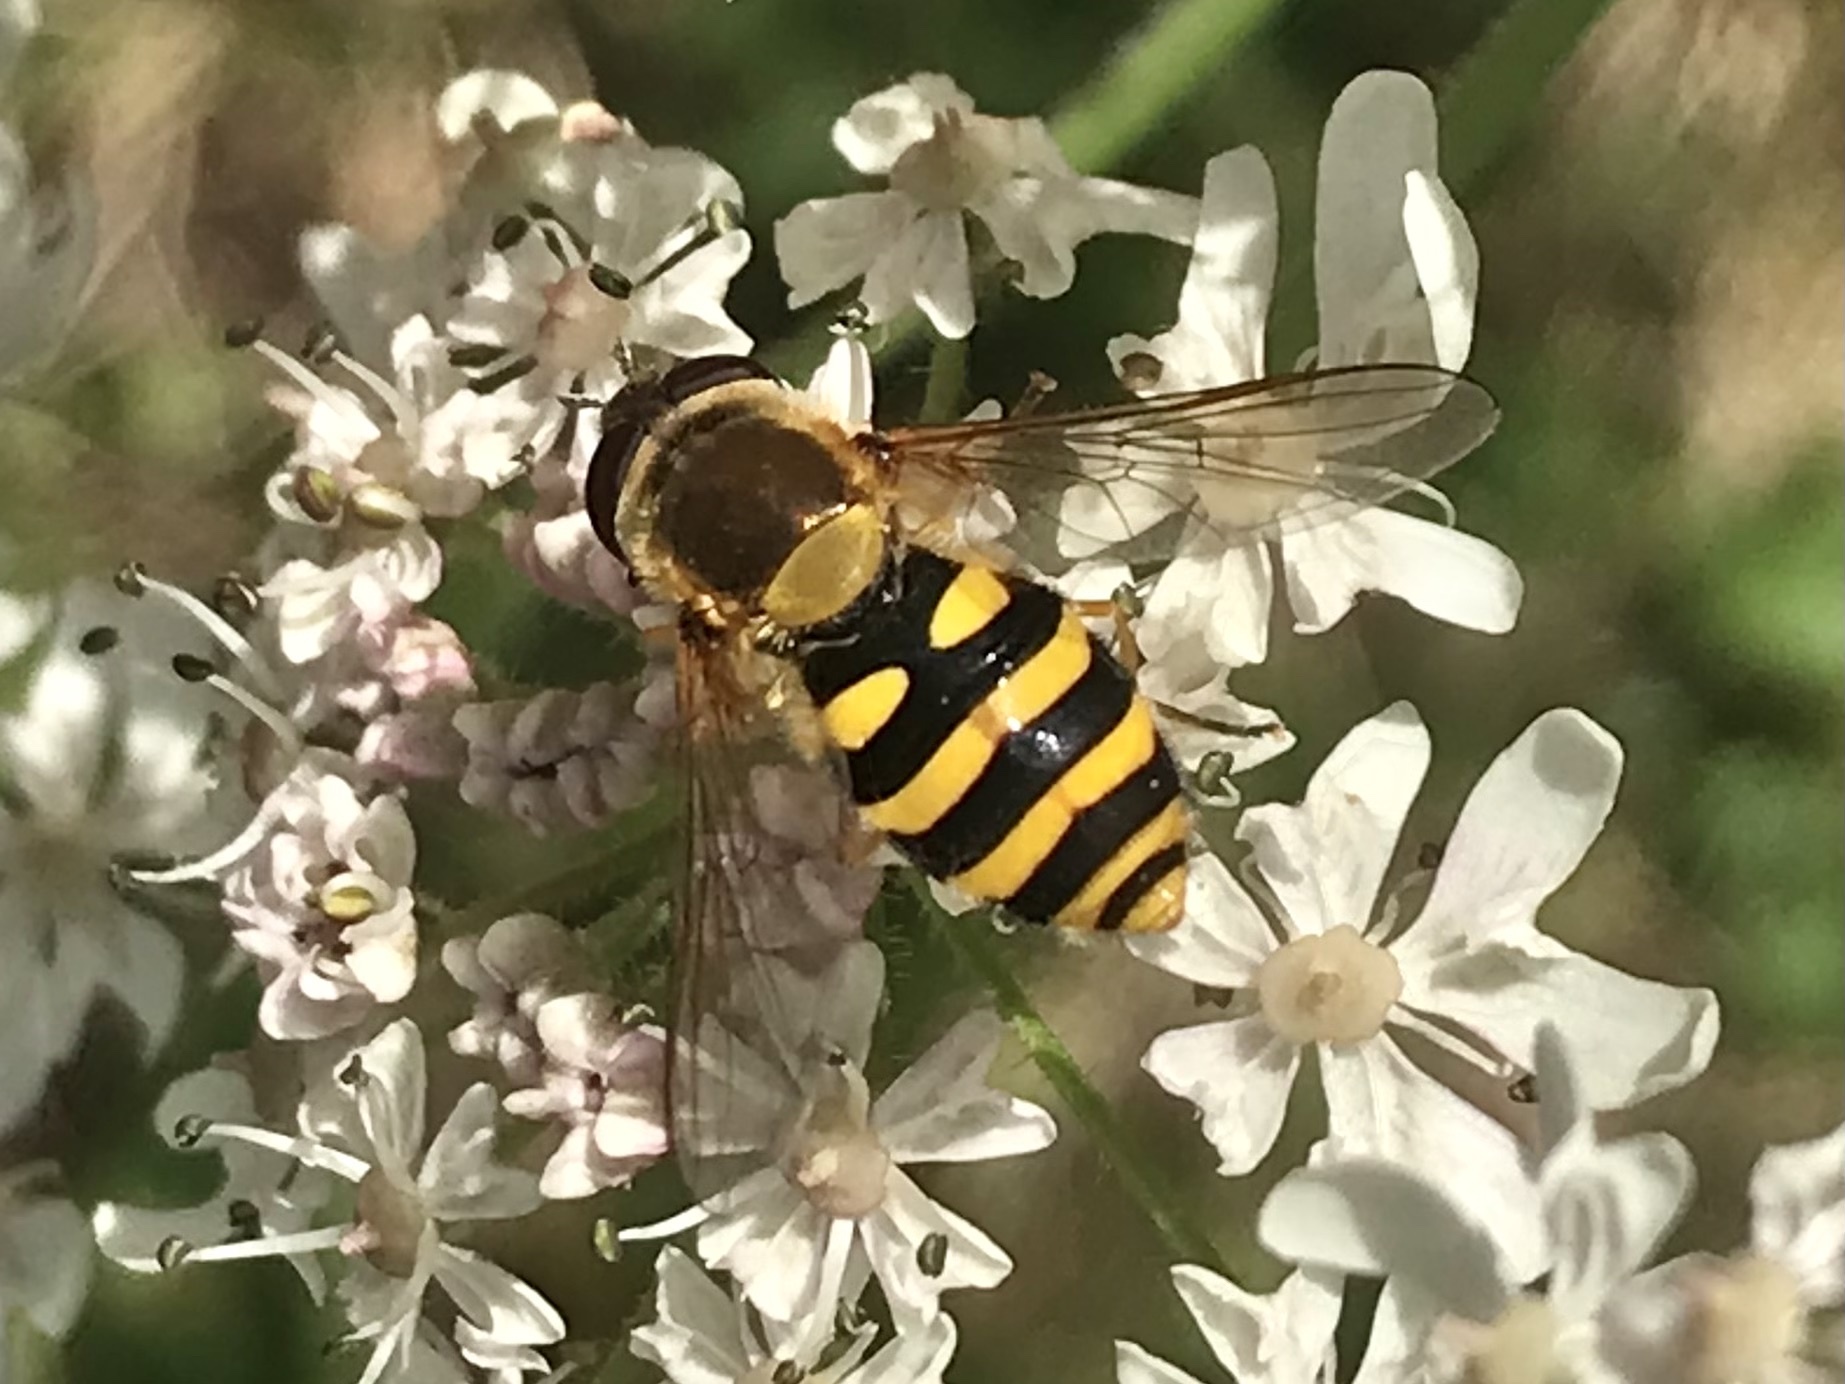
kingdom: Animalia
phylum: Arthropoda
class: Insecta
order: Diptera
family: Syrphidae
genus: Syrphus
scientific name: Syrphus
